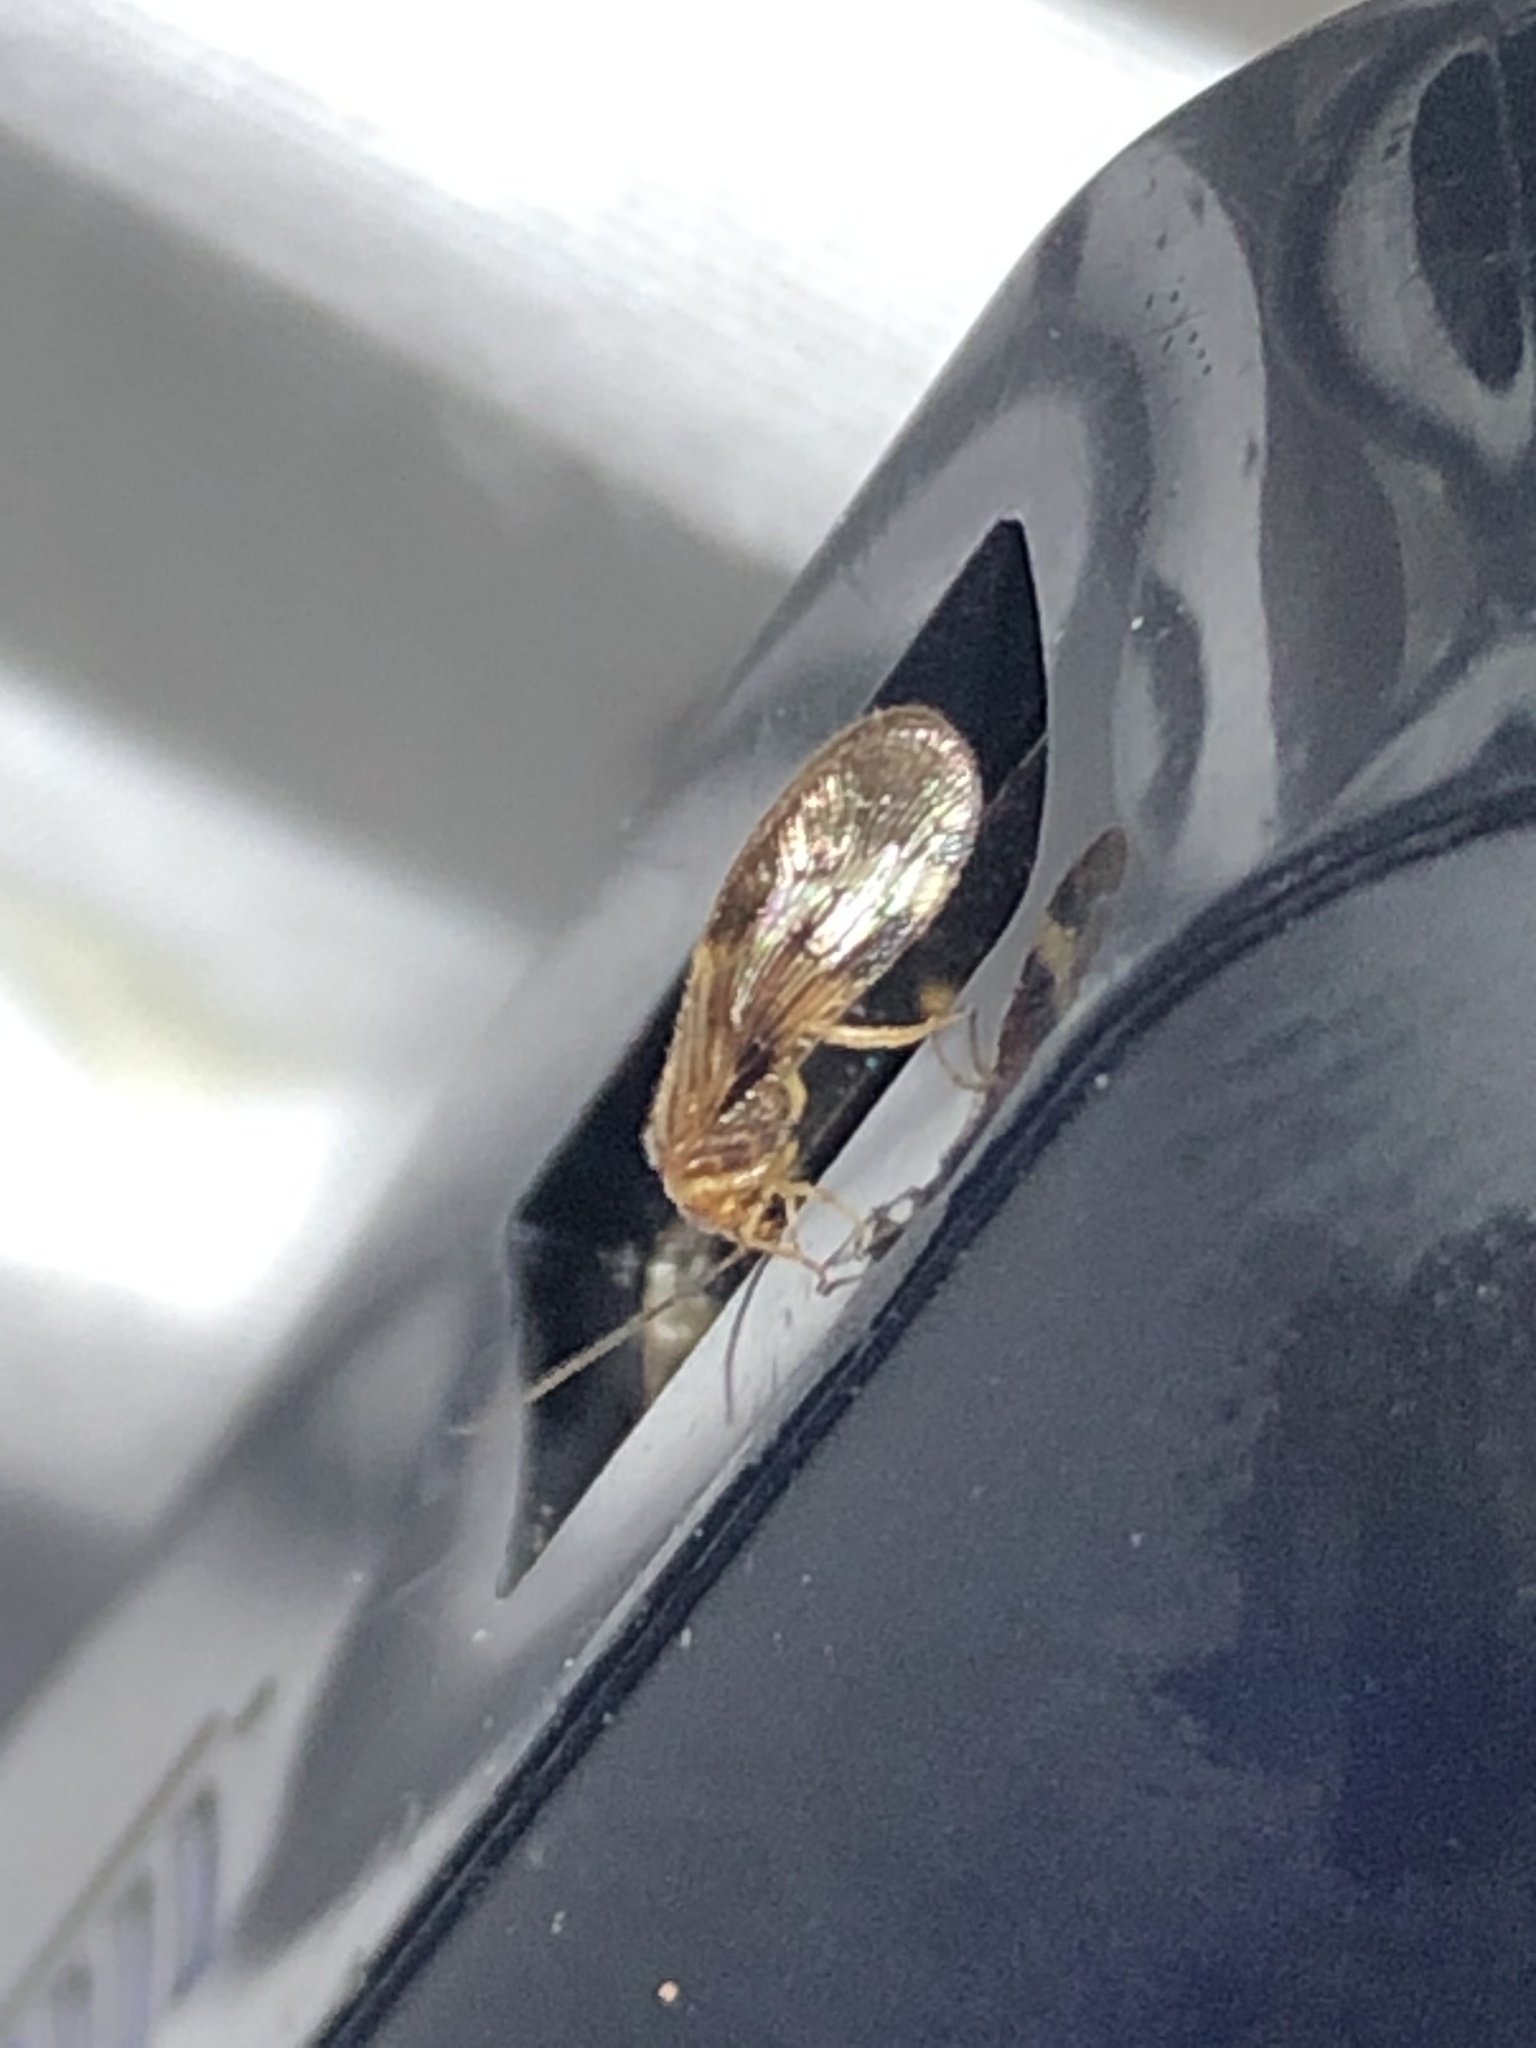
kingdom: Animalia
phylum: Arthropoda
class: Insecta
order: Neuroptera
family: Sisyridae
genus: Climacia
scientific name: Climacia californica
